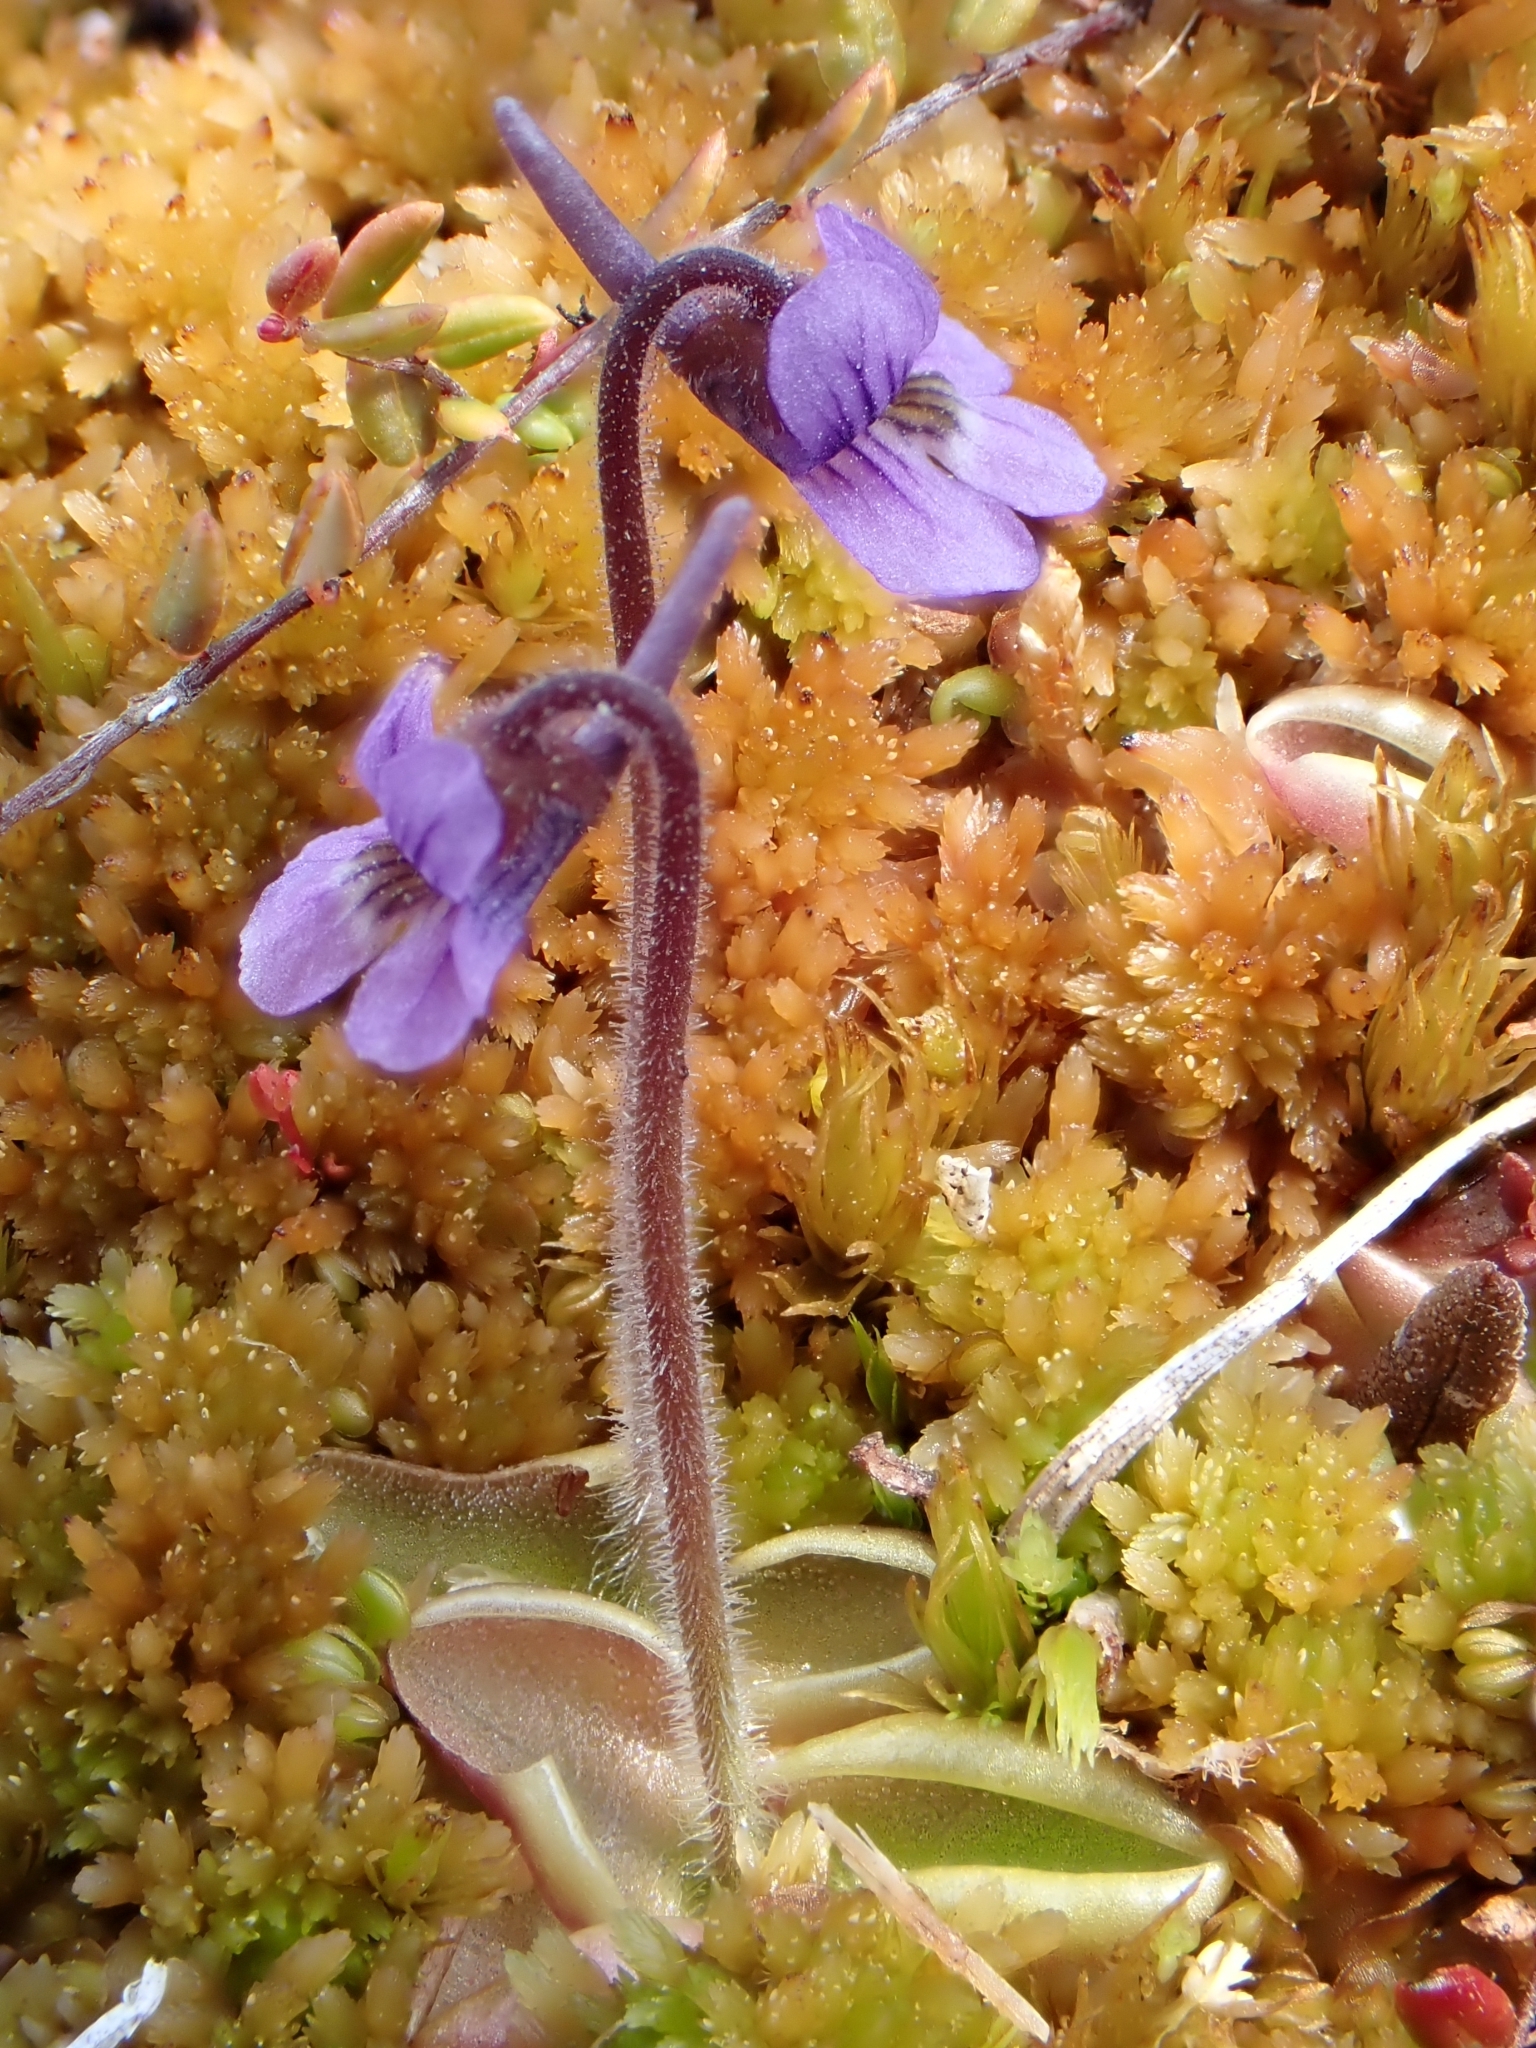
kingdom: Plantae
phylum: Tracheophyta
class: Magnoliopsida
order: Lamiales
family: Lentibulariaceae
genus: Pinguicula
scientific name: Pinguicula villosa
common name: Hairy butterwort
